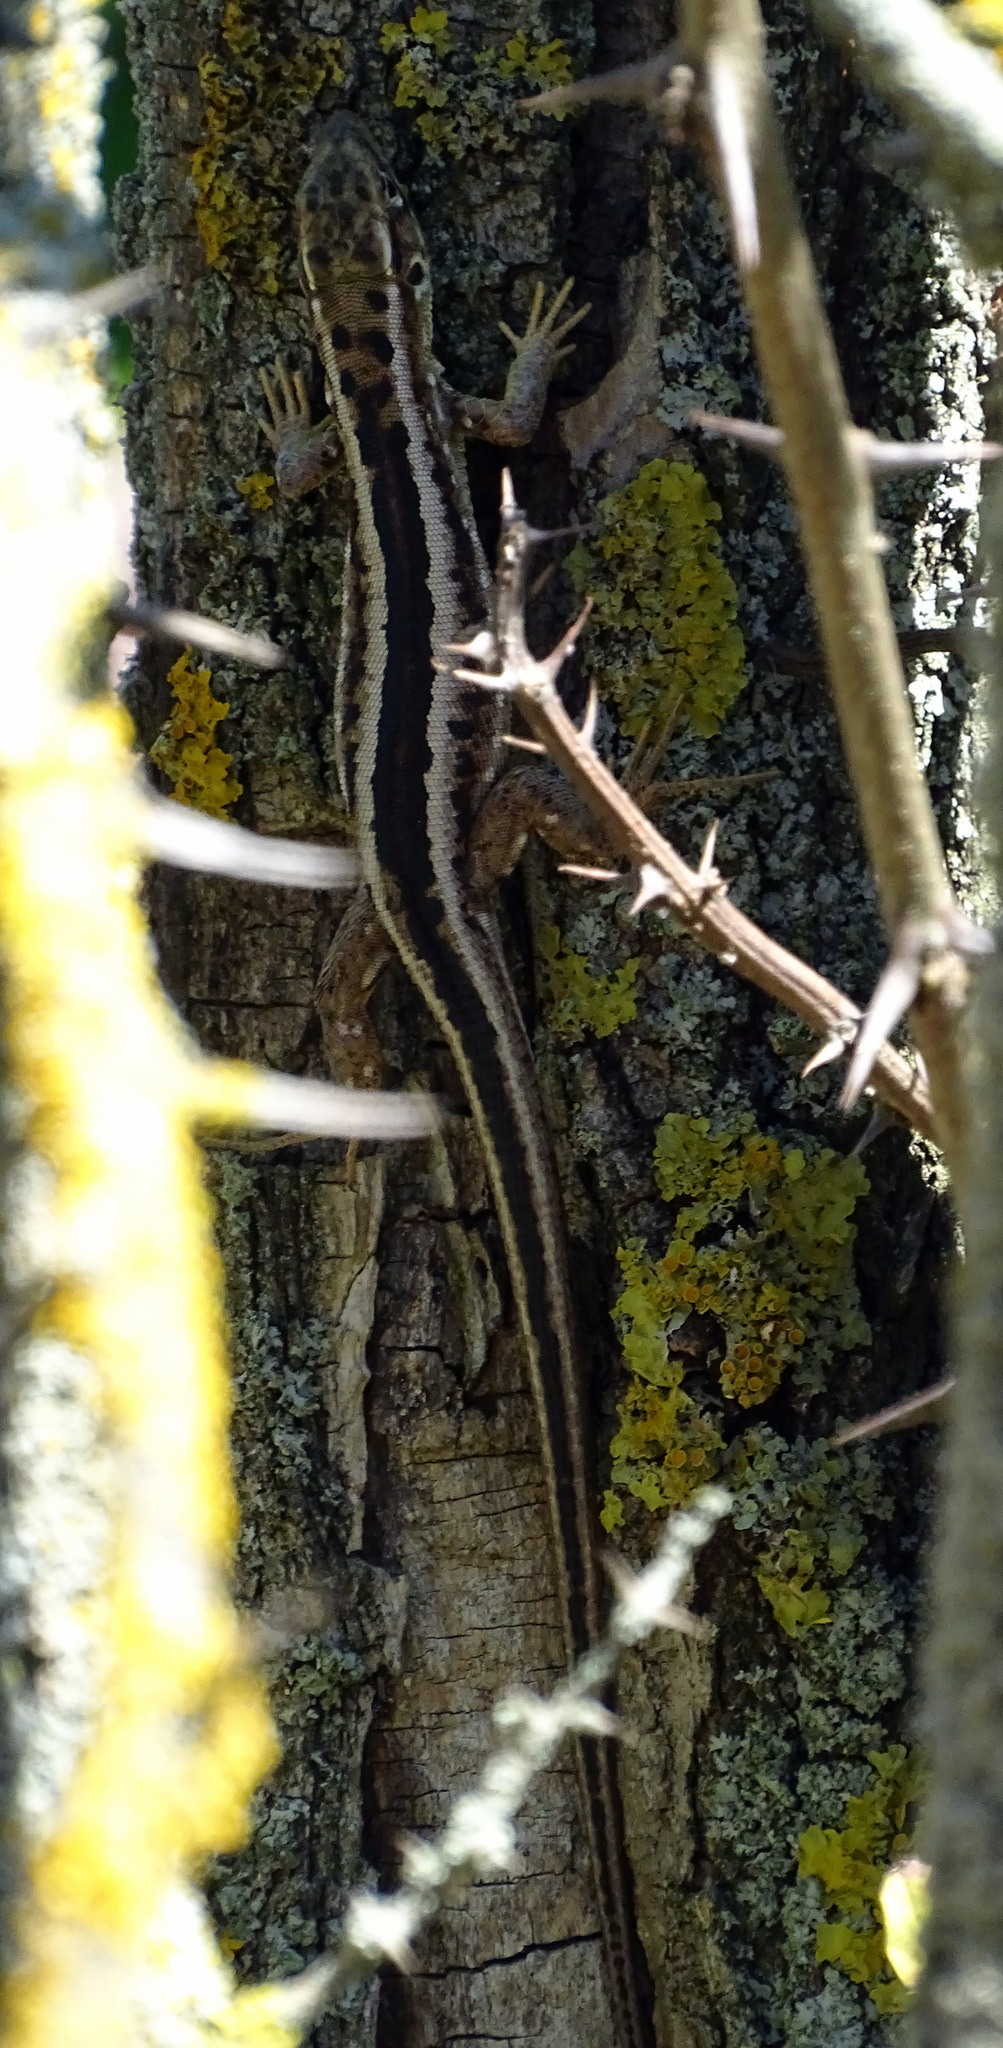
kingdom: Animalia
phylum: Chordata
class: Squamata
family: Lacertidae
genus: Lacerta
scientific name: Lacerta viridis
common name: European green lizard
